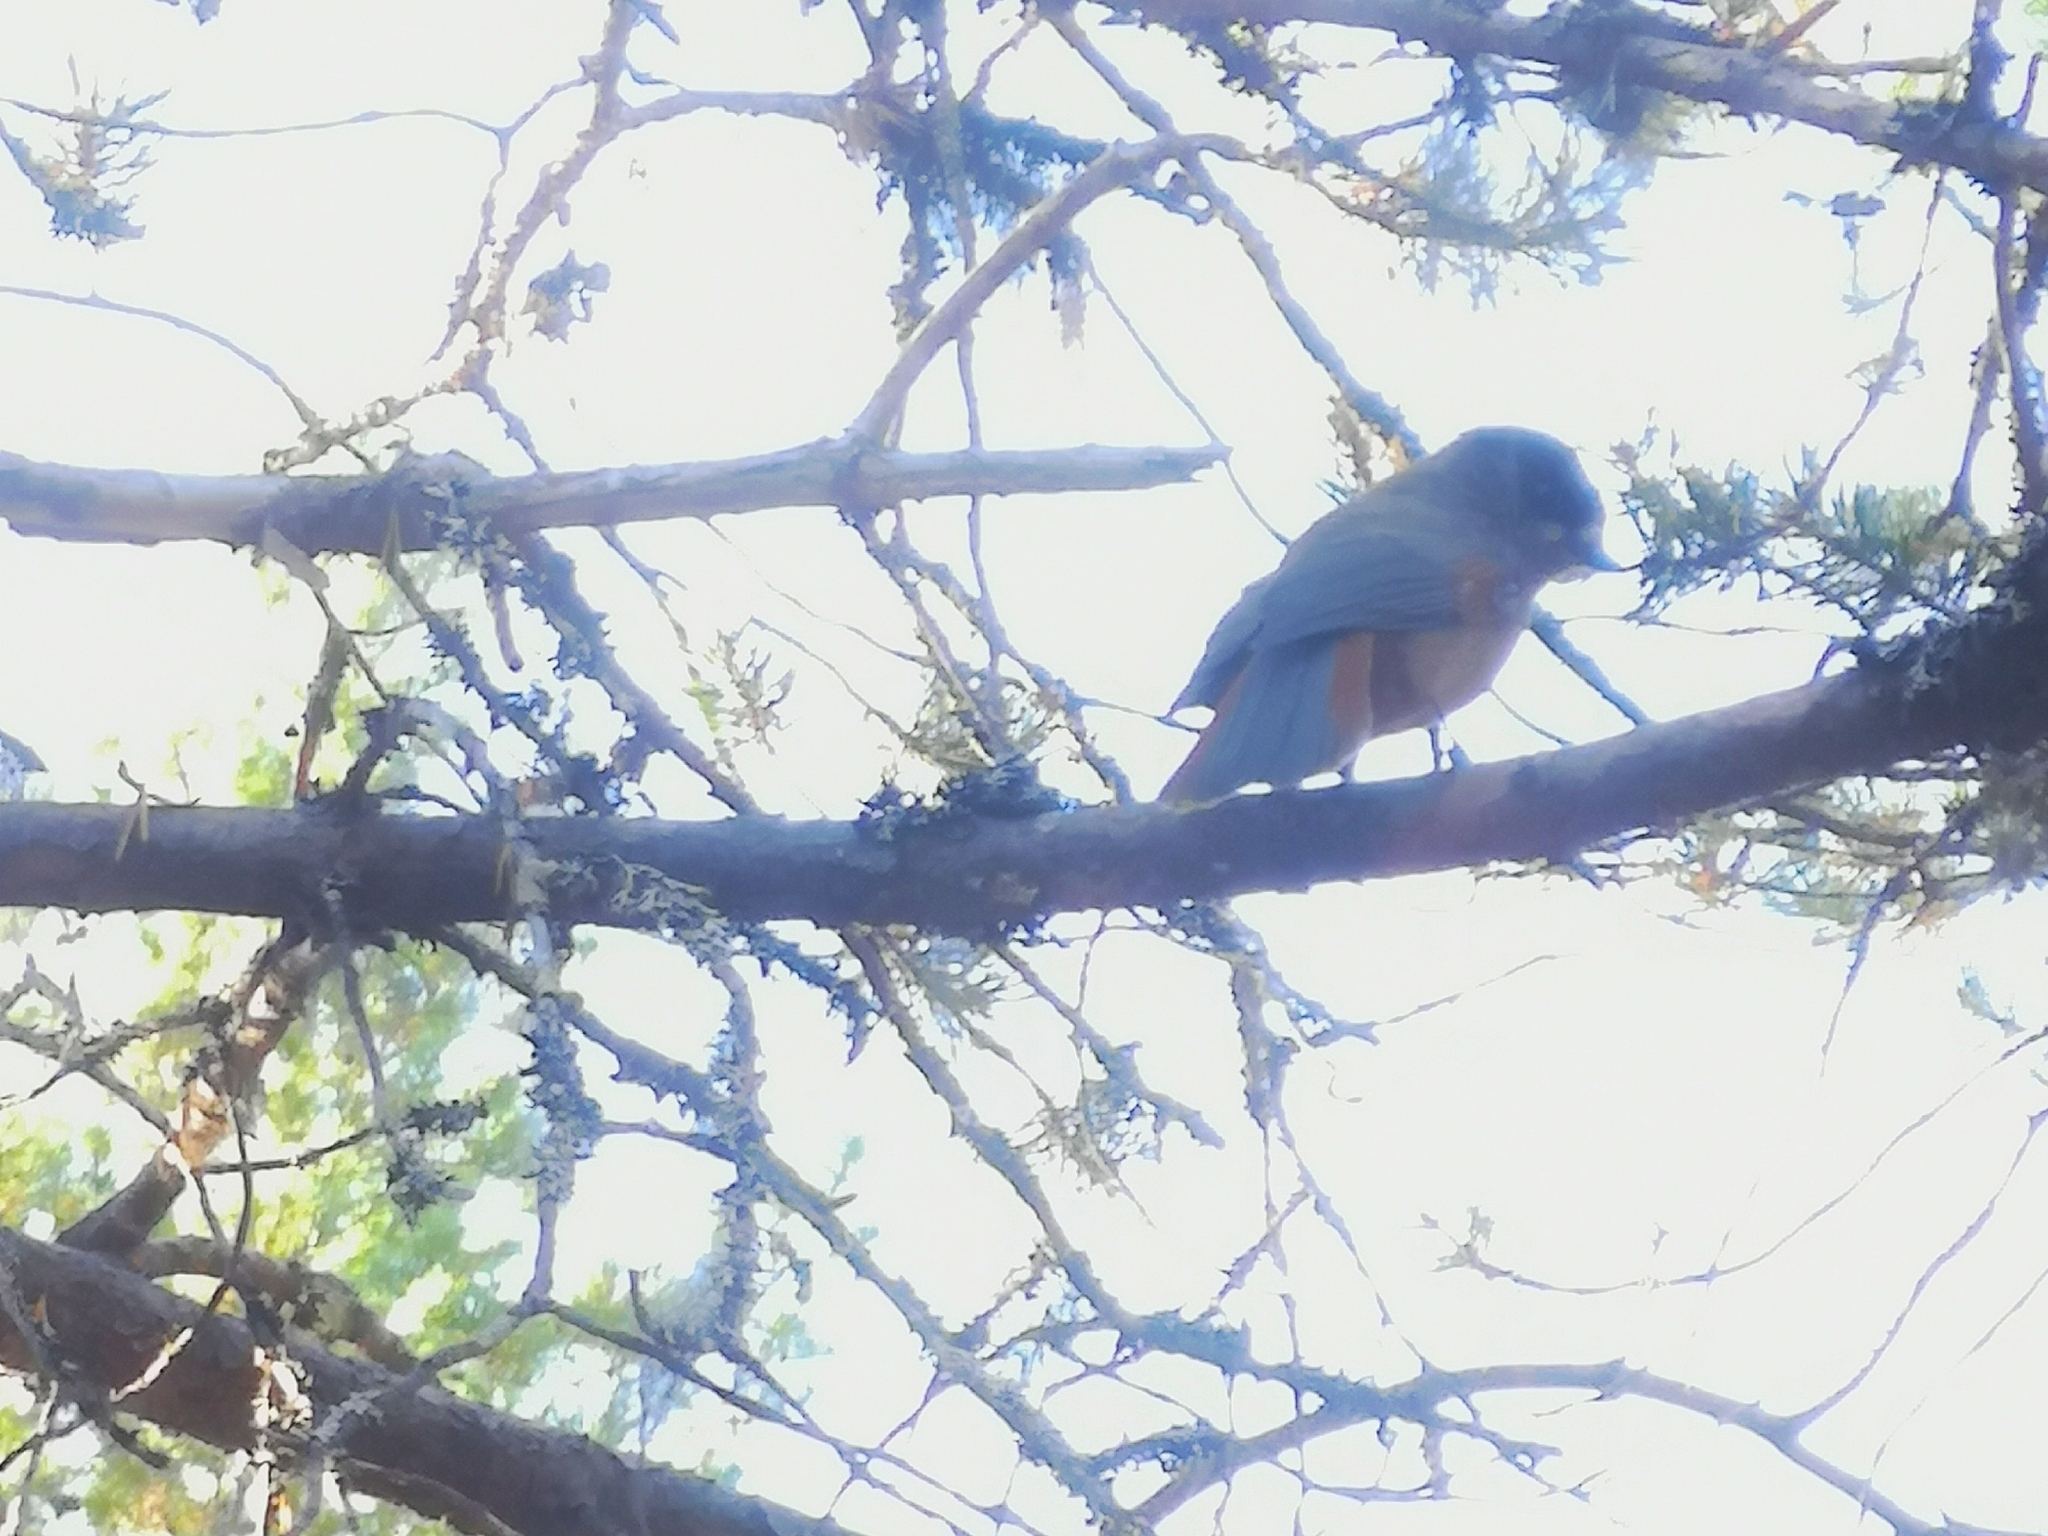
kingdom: Animalia
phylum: Chordata
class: Aves
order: Passeriformes
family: Corvidae
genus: Perisoreus
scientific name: Perisoreus infaustus
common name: Siberian jay
